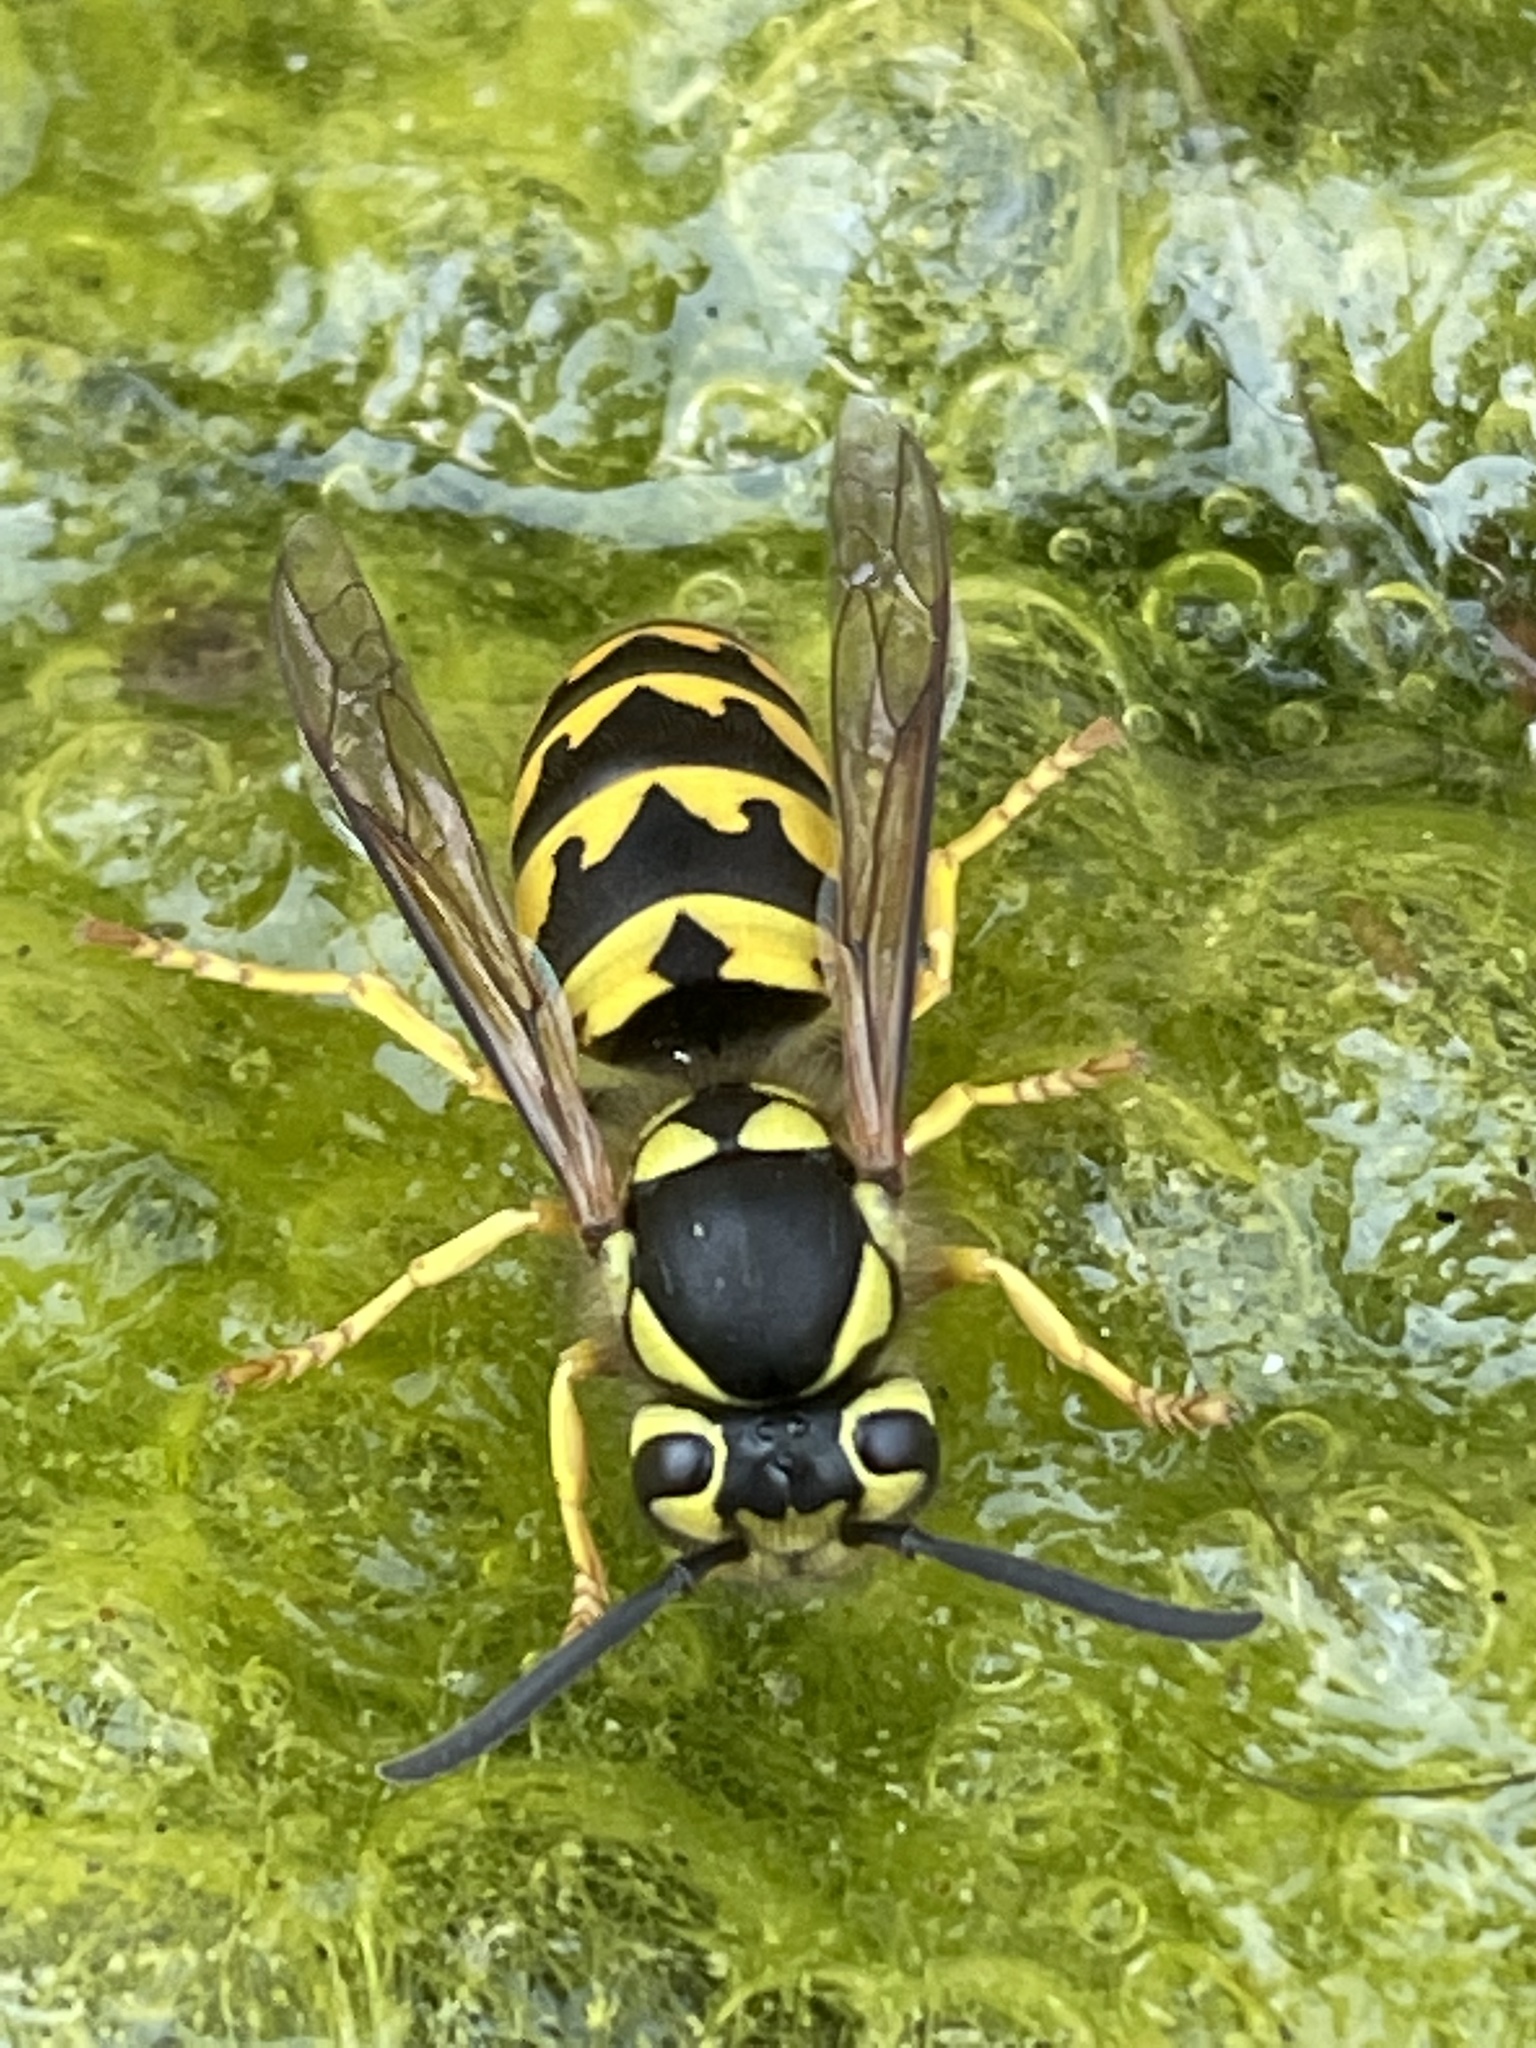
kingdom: Animalia
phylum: Arthropoda
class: Insecta
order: Hymenoptera
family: Vespidae
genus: Vespula
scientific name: Vespula pensylvanica
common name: Western yellowjacket
